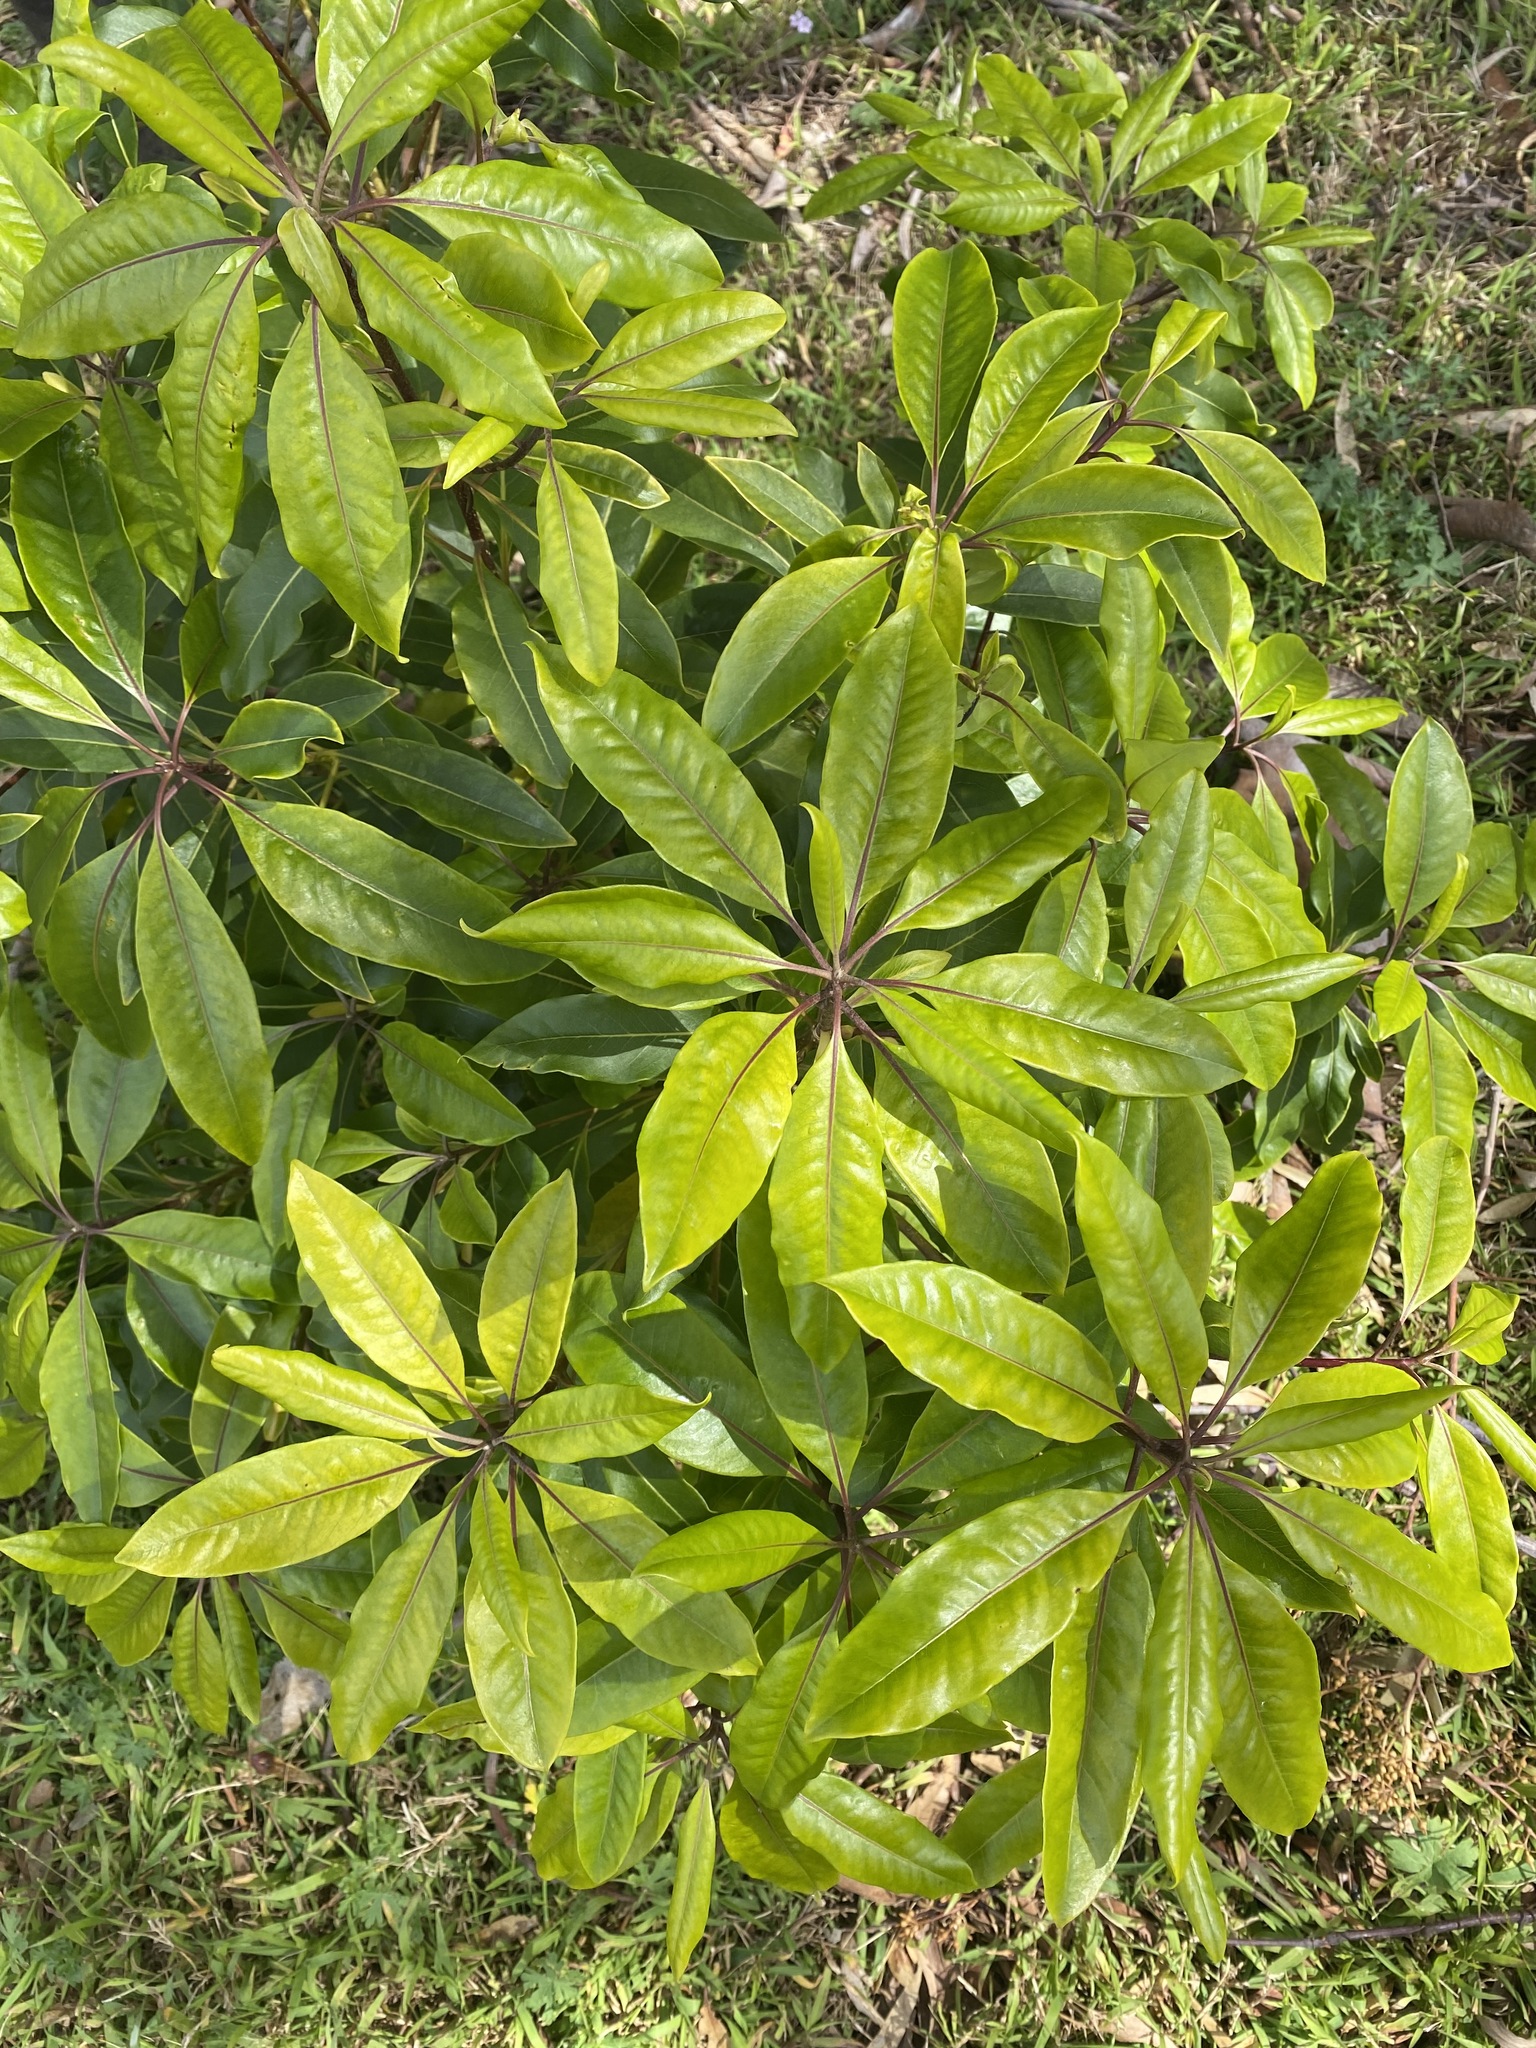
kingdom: Plantae
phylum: Tracheophyta
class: Magnoliopsida
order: Apiales
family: Pittosporaceae
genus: Pittosporum
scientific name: Pittosporum undulatum
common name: Australian cheesewood
